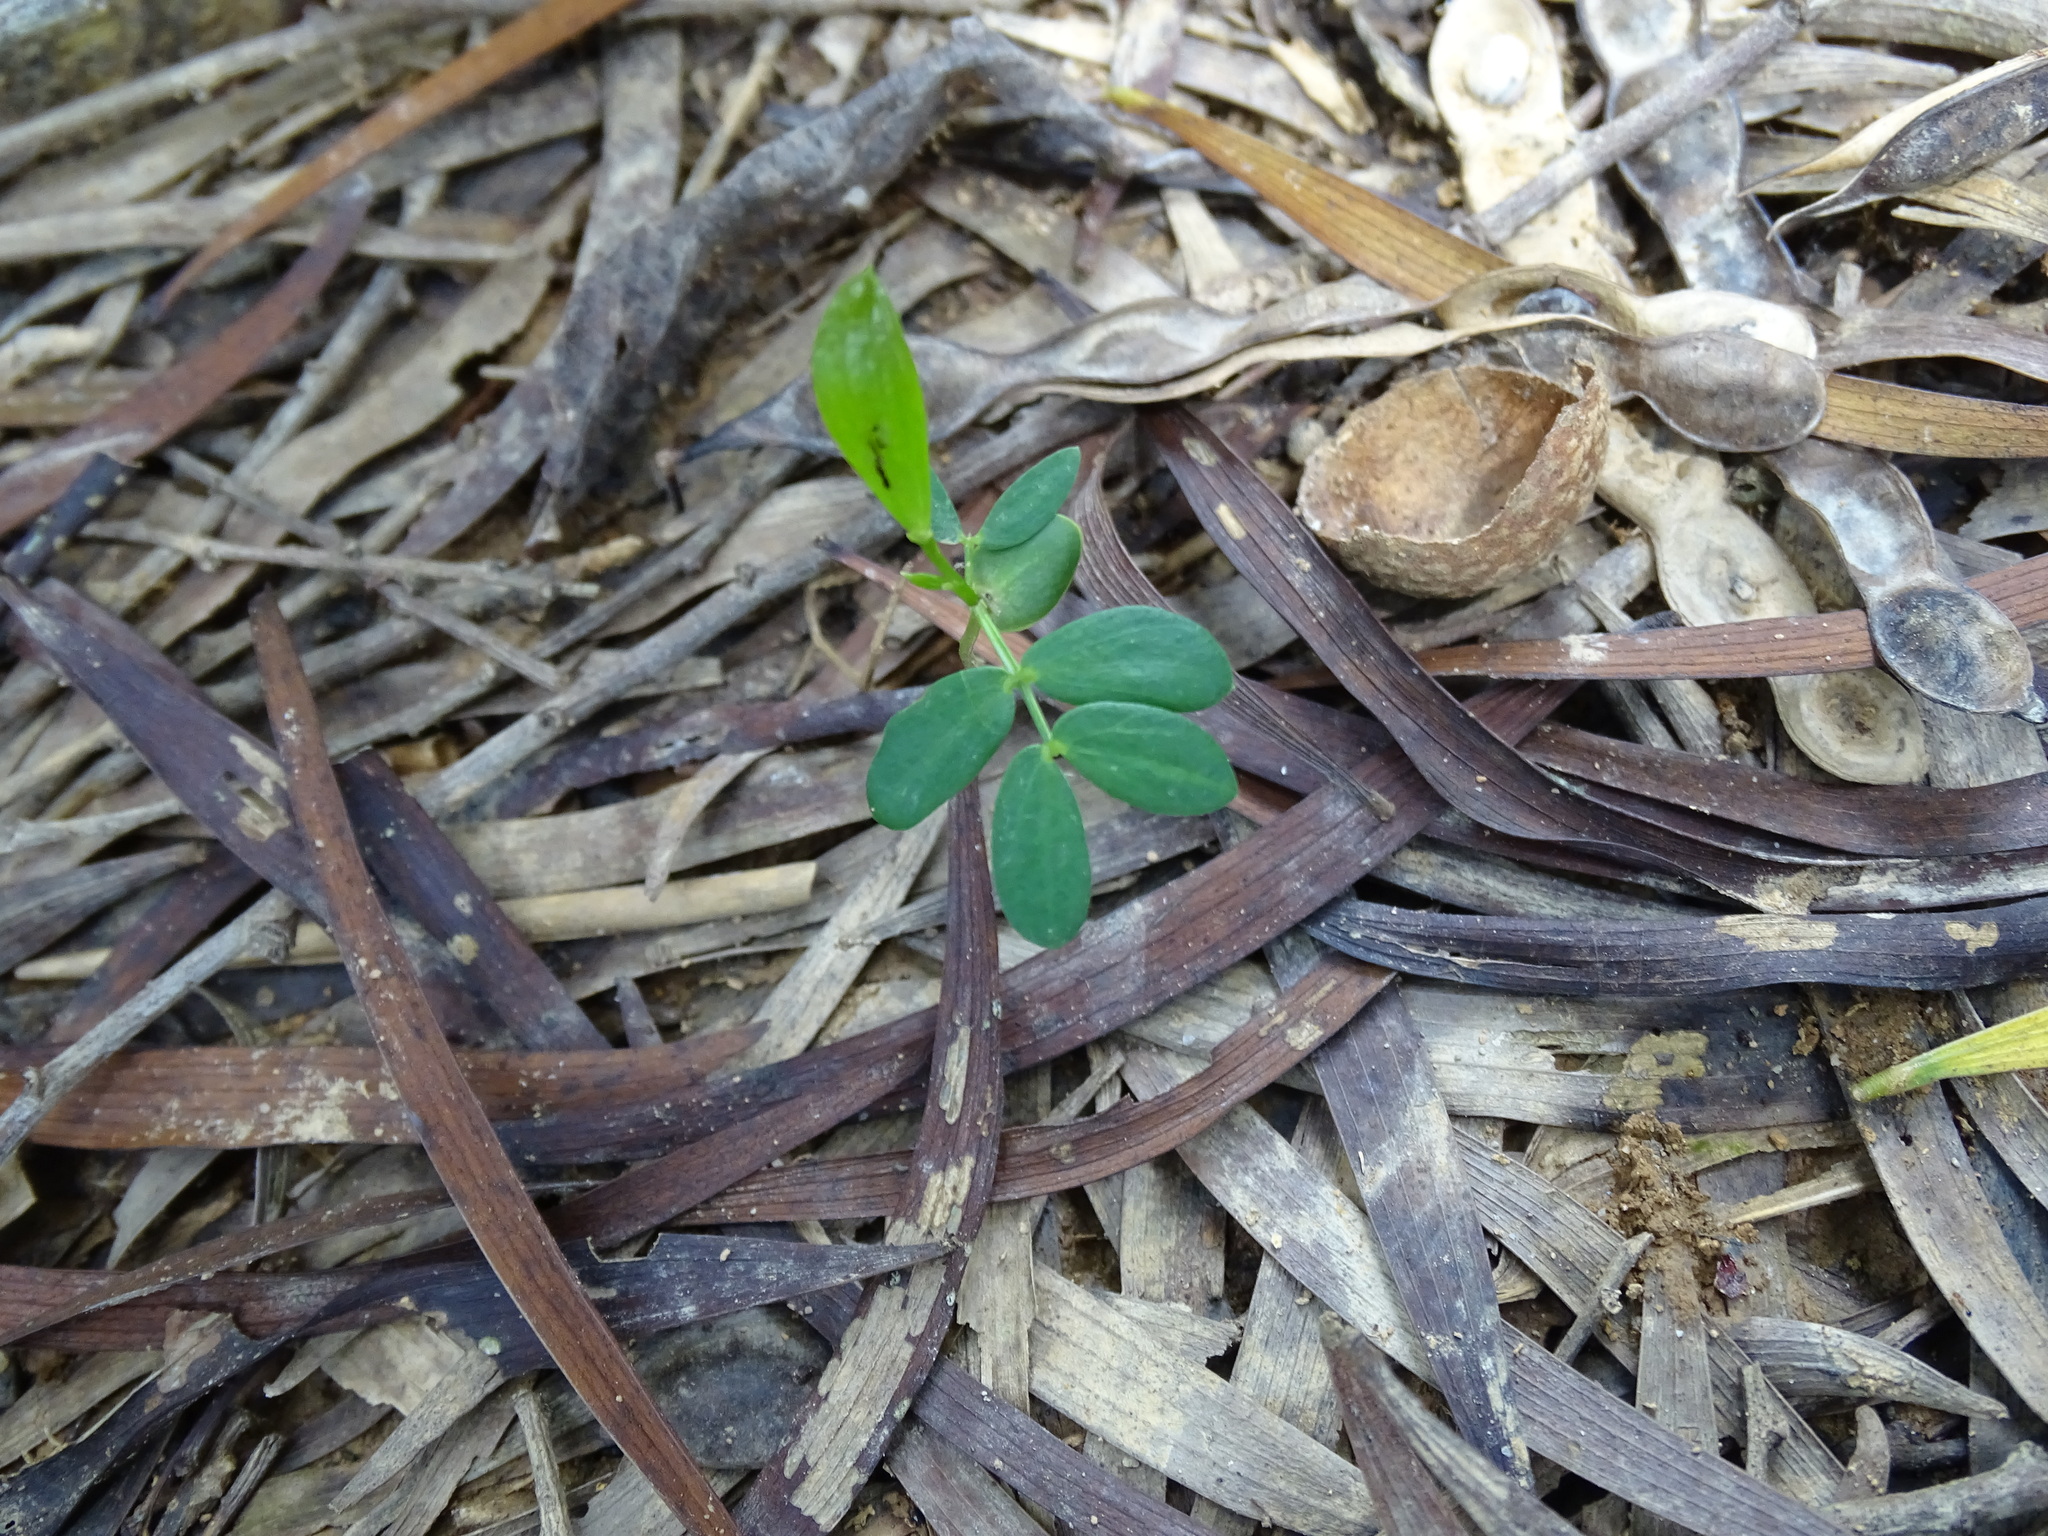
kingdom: Plantae
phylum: Tracheophyta
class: Magnoliopsida
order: Fabales
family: Fabaceae
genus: Acacia
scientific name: Acacia confusa
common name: Formosan koa
